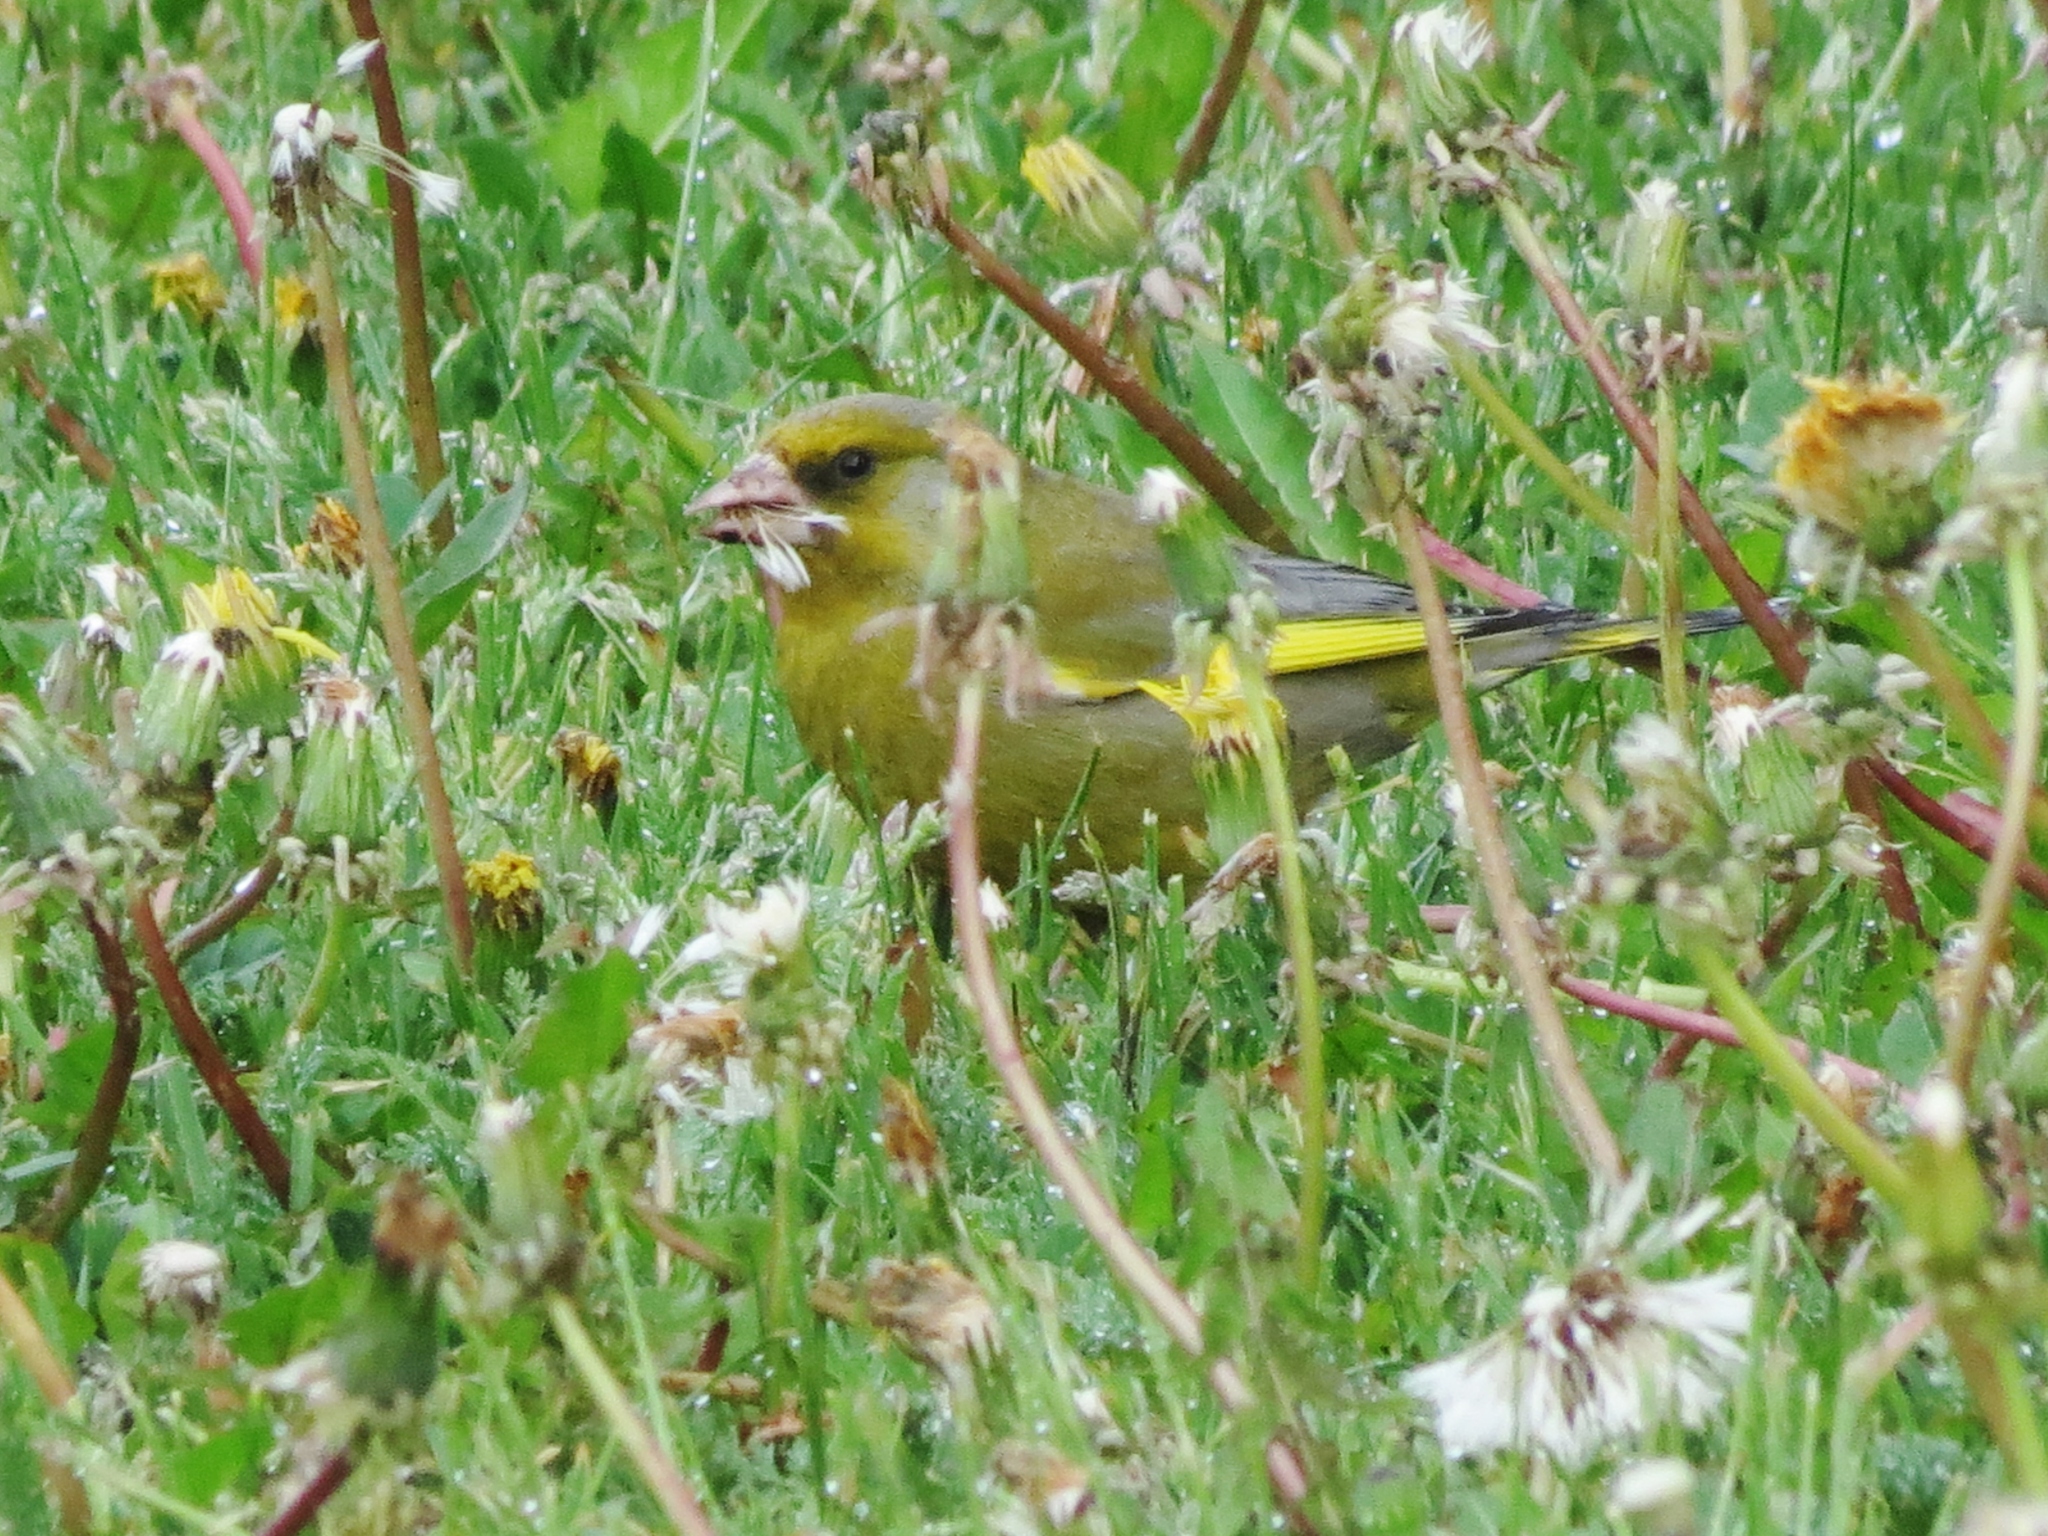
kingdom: Plantae
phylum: Tracheophyta
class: Liliopsida
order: Poales
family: Poaceae
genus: Chloris
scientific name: Chloris chloris
